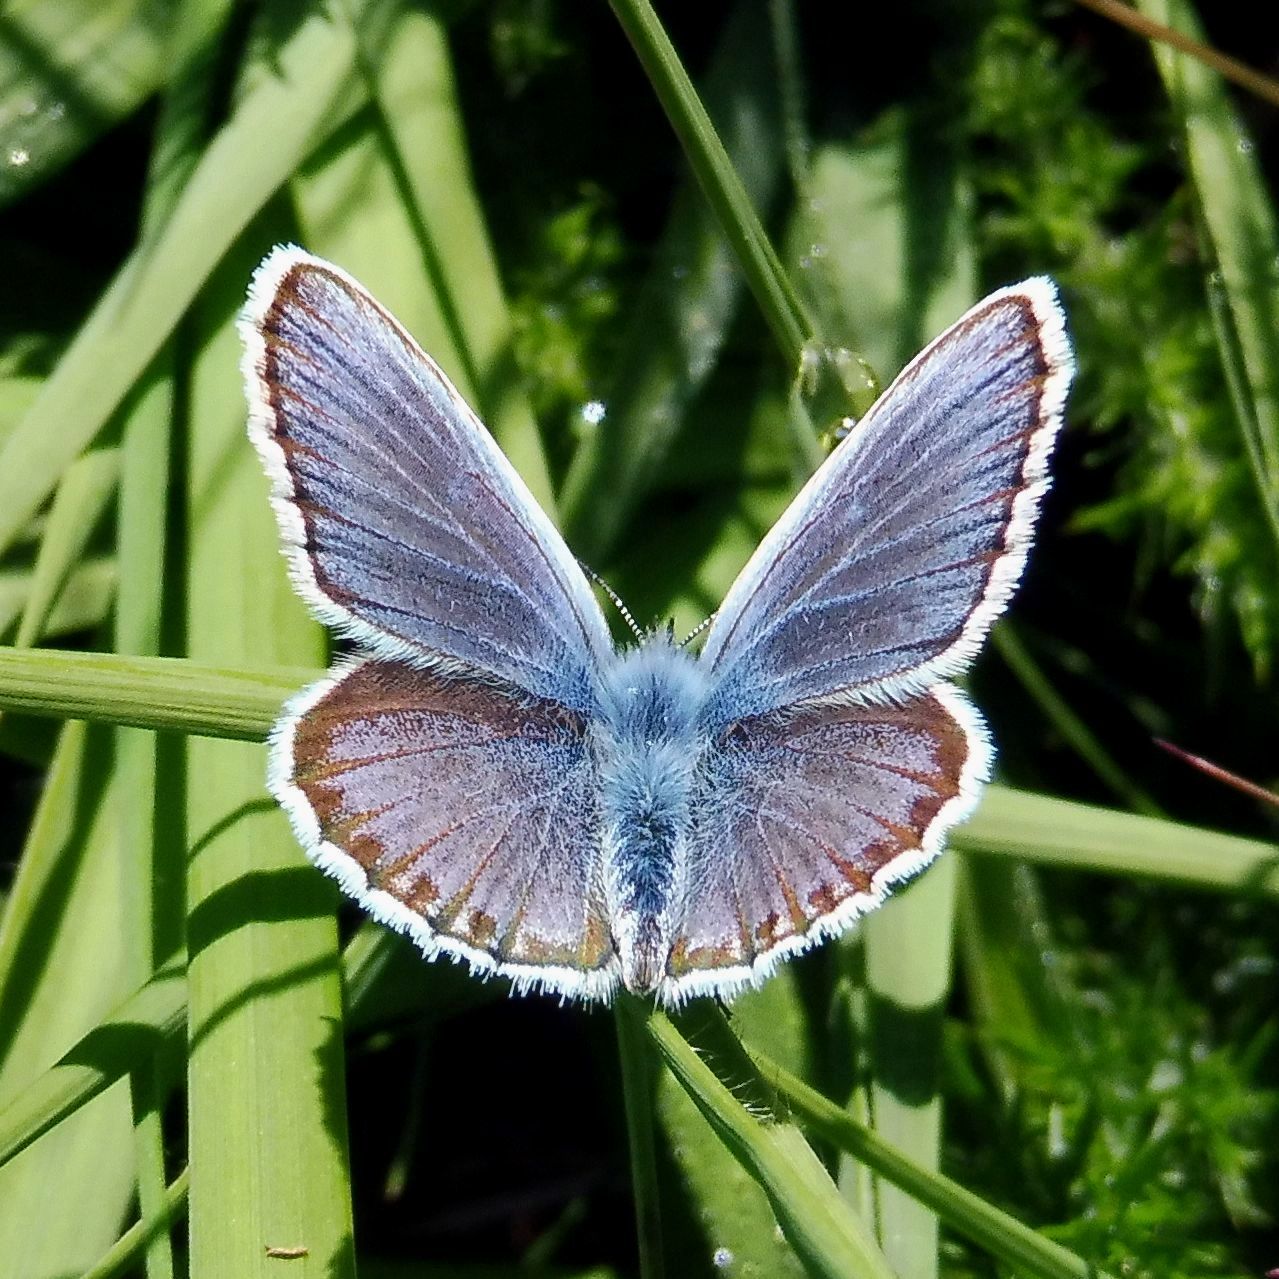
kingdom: Animalia
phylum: Arthropoda
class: Insecta
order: Lepidoptera
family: Lycaenidae
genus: Plebejus
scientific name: Plebejus argus
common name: Silver-studded blue
